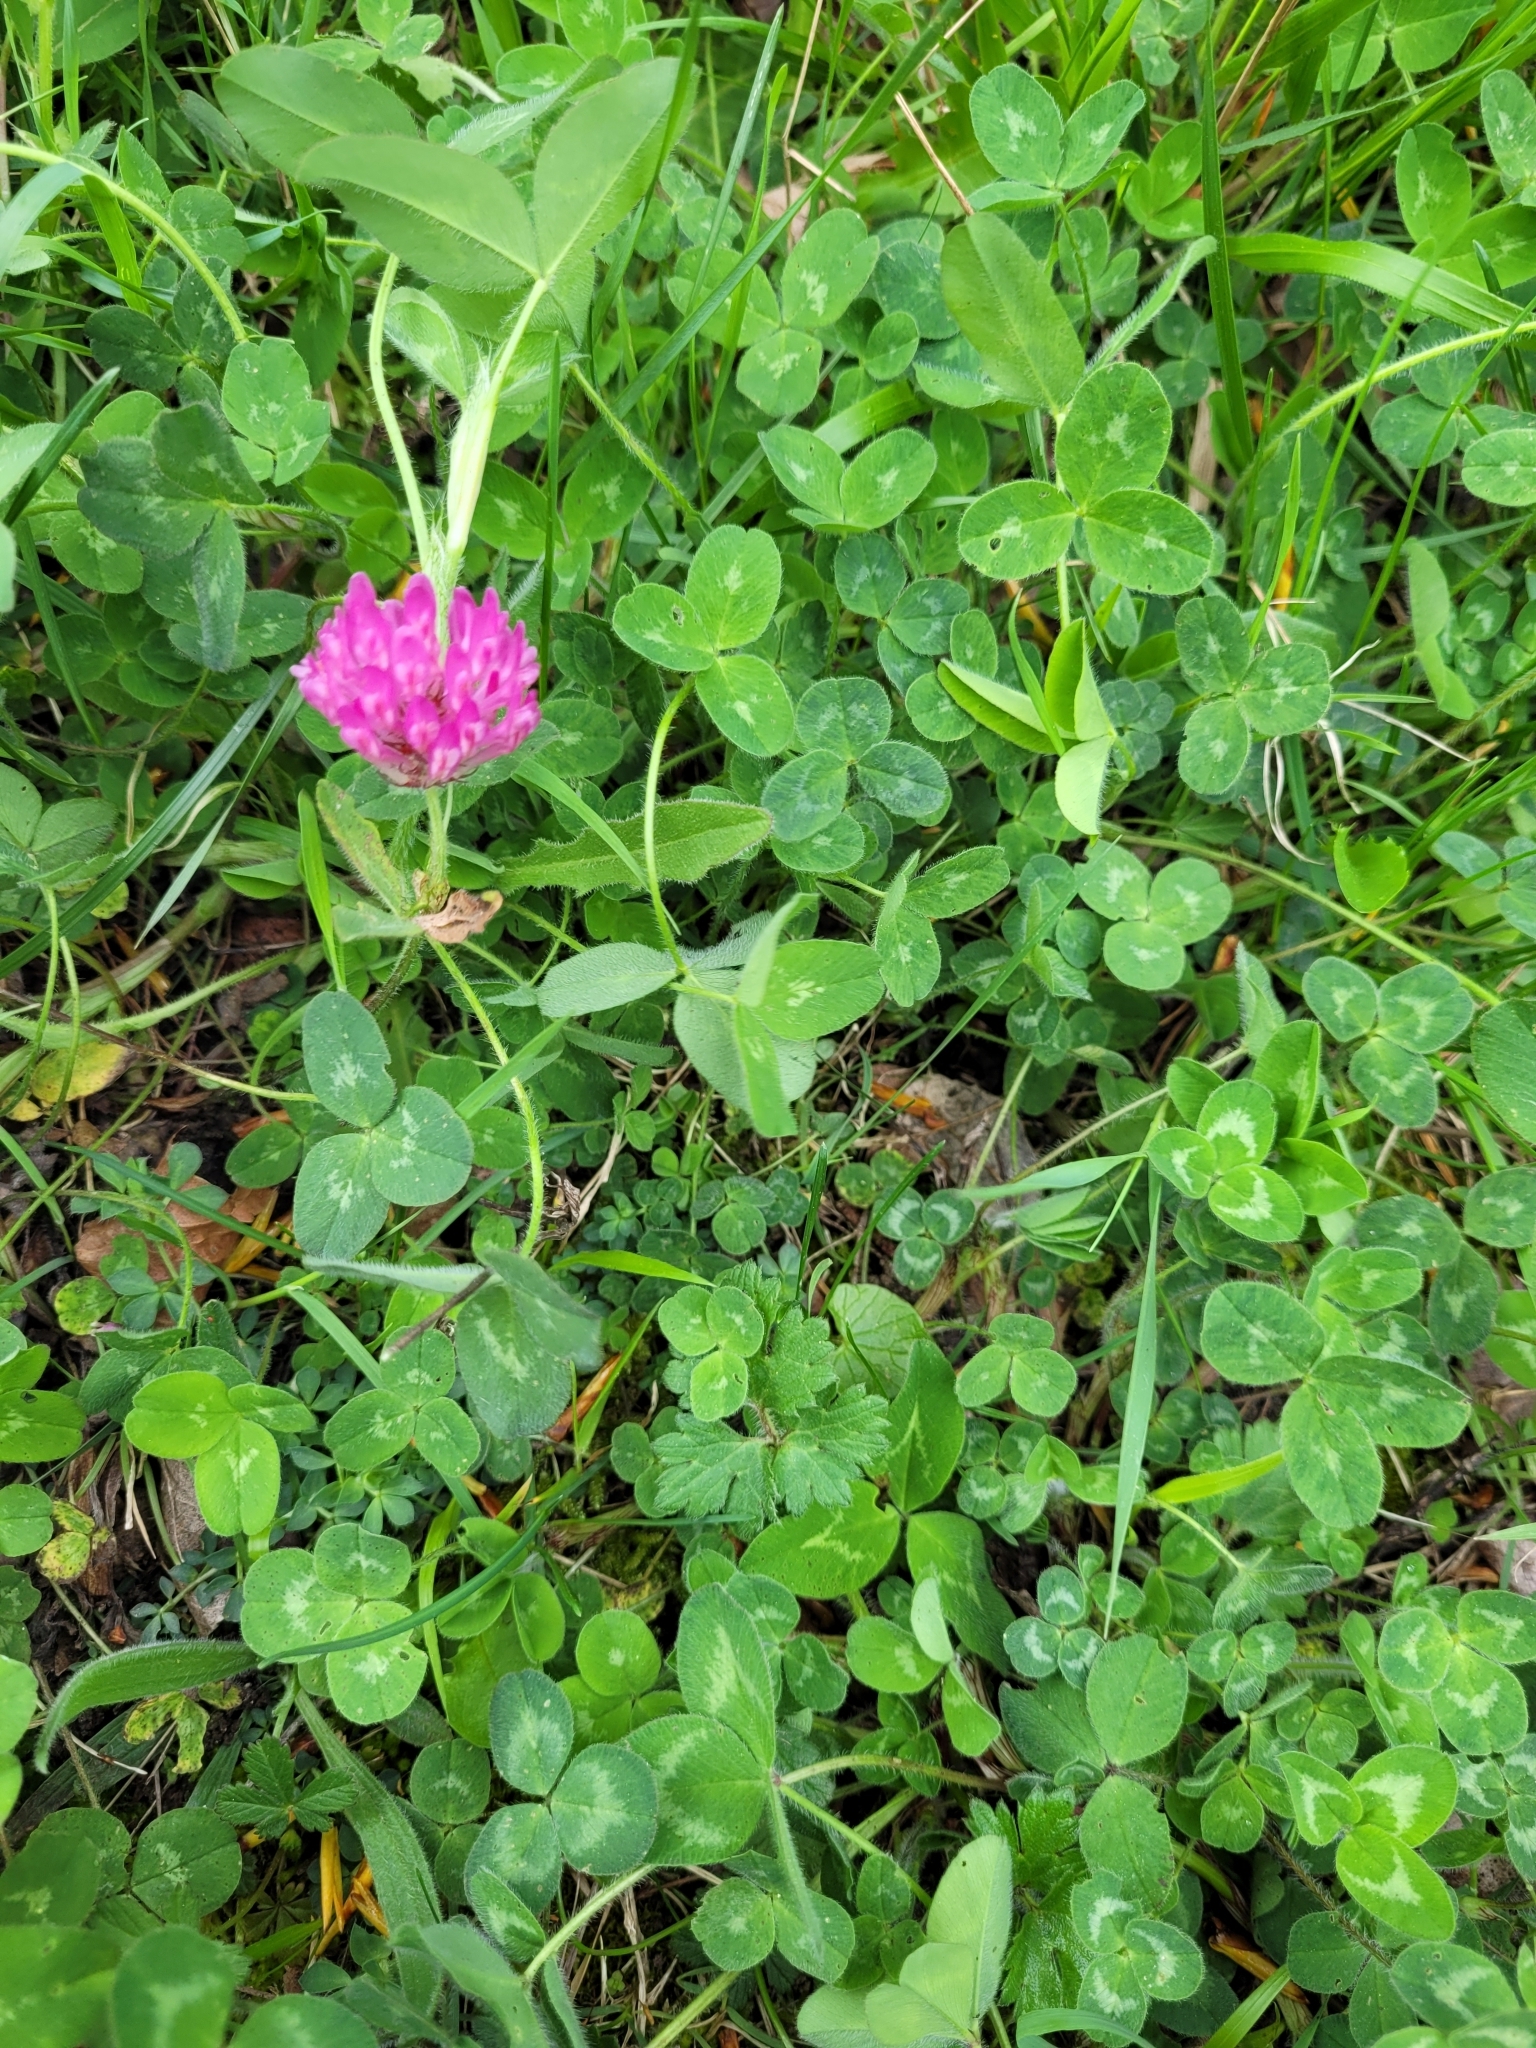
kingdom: Plantae
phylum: Tracheophyta
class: Magnoliopsida
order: Fabales
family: Fabaceae
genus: Trifolium
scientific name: Trifolium pratense
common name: Red clover
